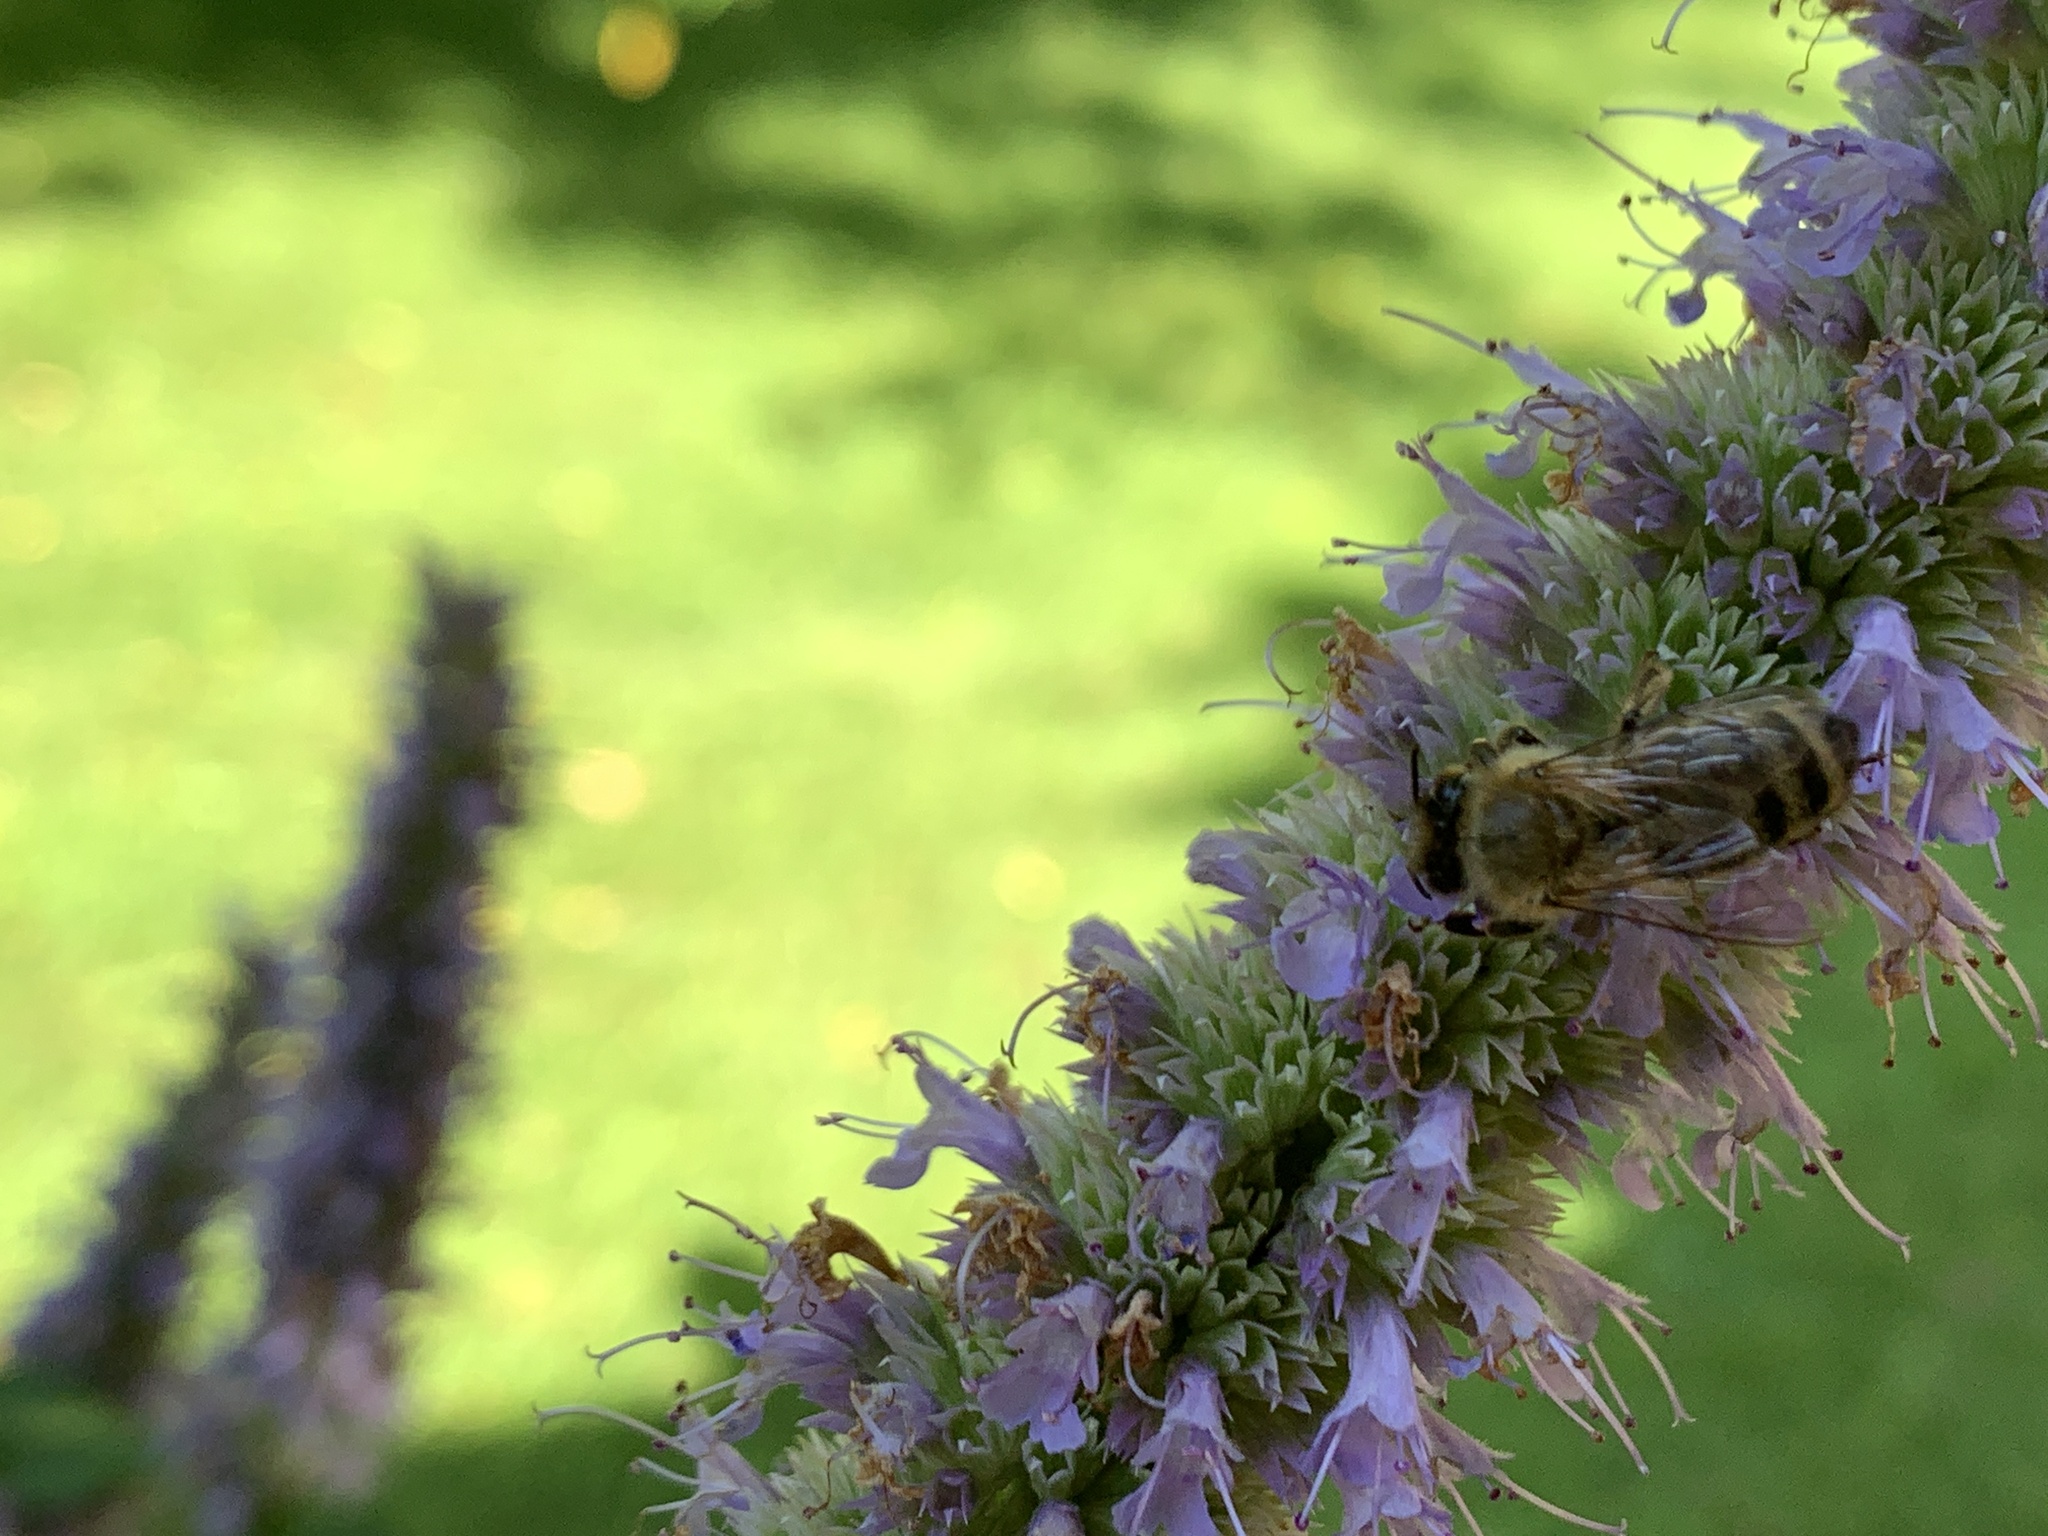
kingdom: Animalia
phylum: Arthropoda
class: Insecta
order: Hymenoptera
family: Apidae
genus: Apis
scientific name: Apis mellifera
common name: Honey bee
